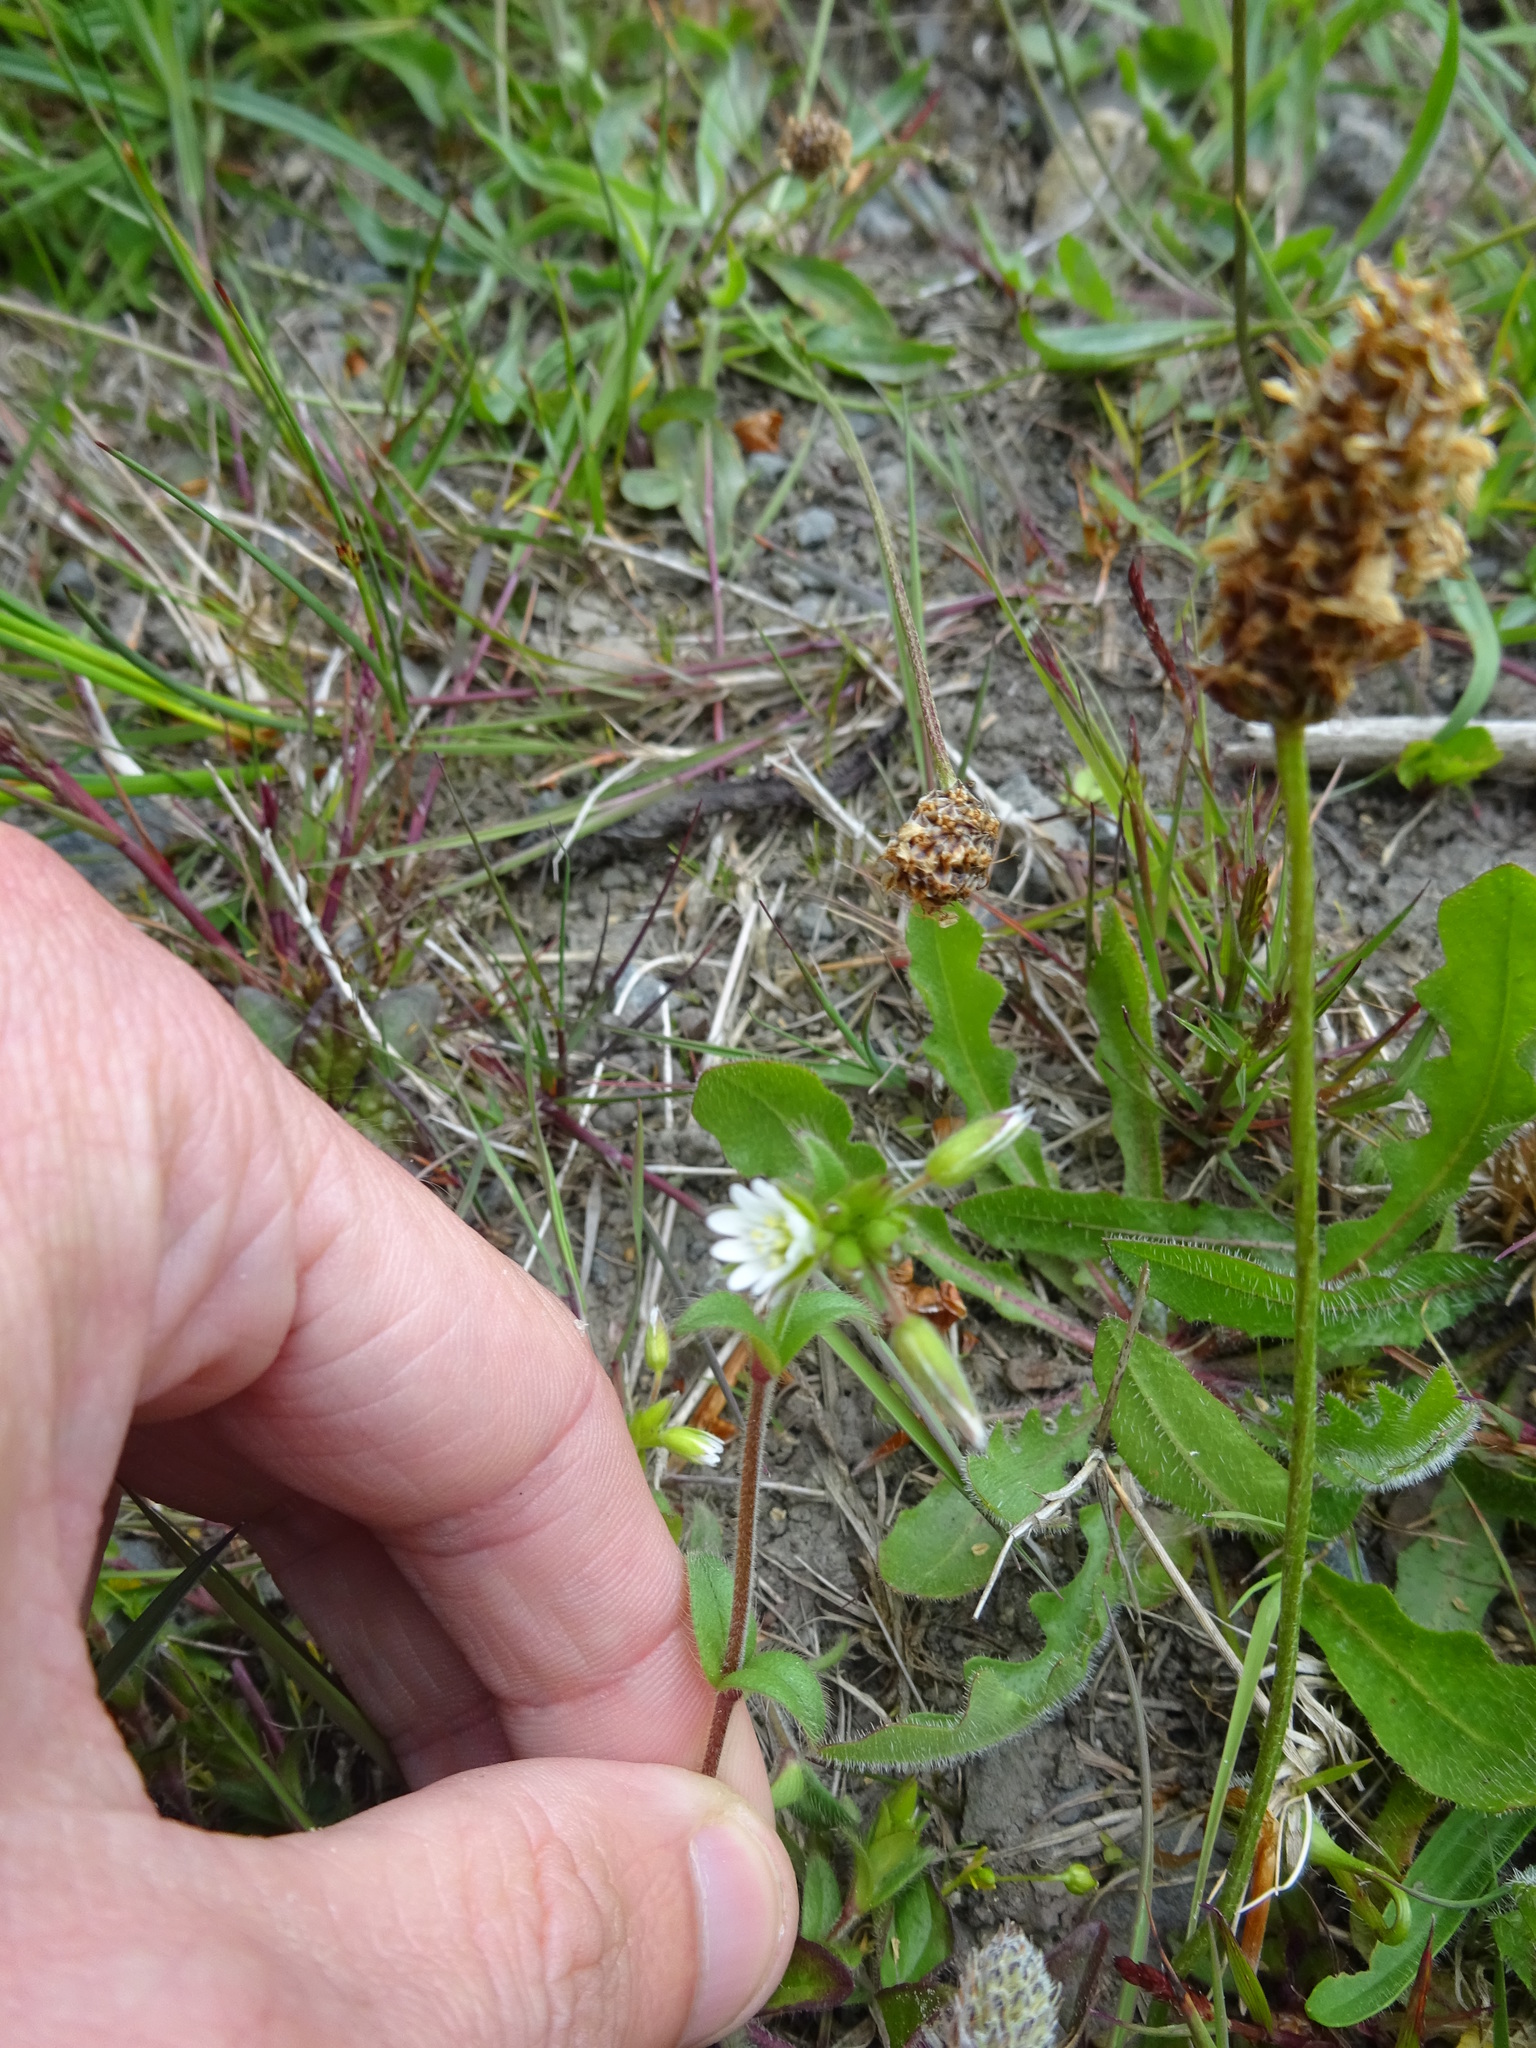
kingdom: Plantae
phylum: Tracheophyta
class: Magnoliopsida
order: Caryophyllales
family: Caryophyllaceae
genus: Cerastium
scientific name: Cerastium fontanum
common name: Common mouse-ear
